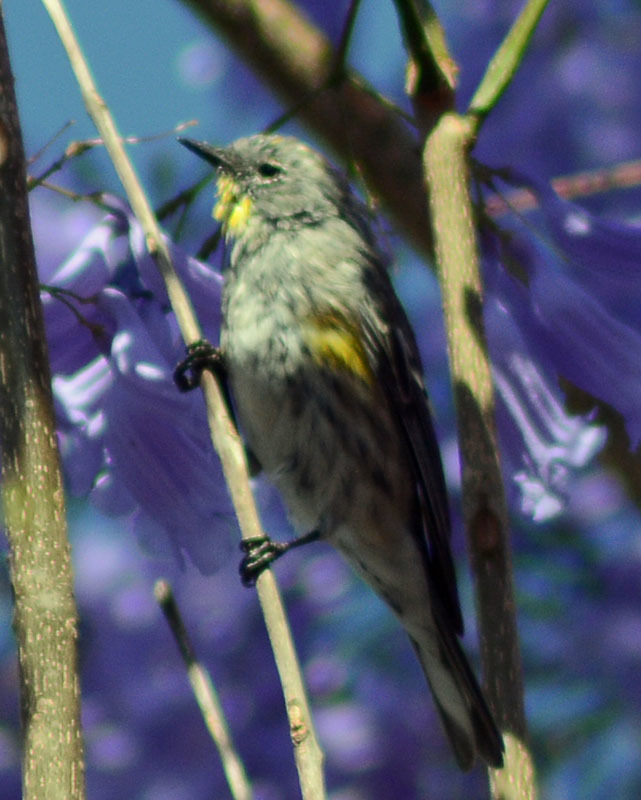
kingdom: Animalia
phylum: Chordata
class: Aves
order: Passeriformes
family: Parulidae
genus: Setophaga
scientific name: Setophaga auduboni
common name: Audubon's warbler
